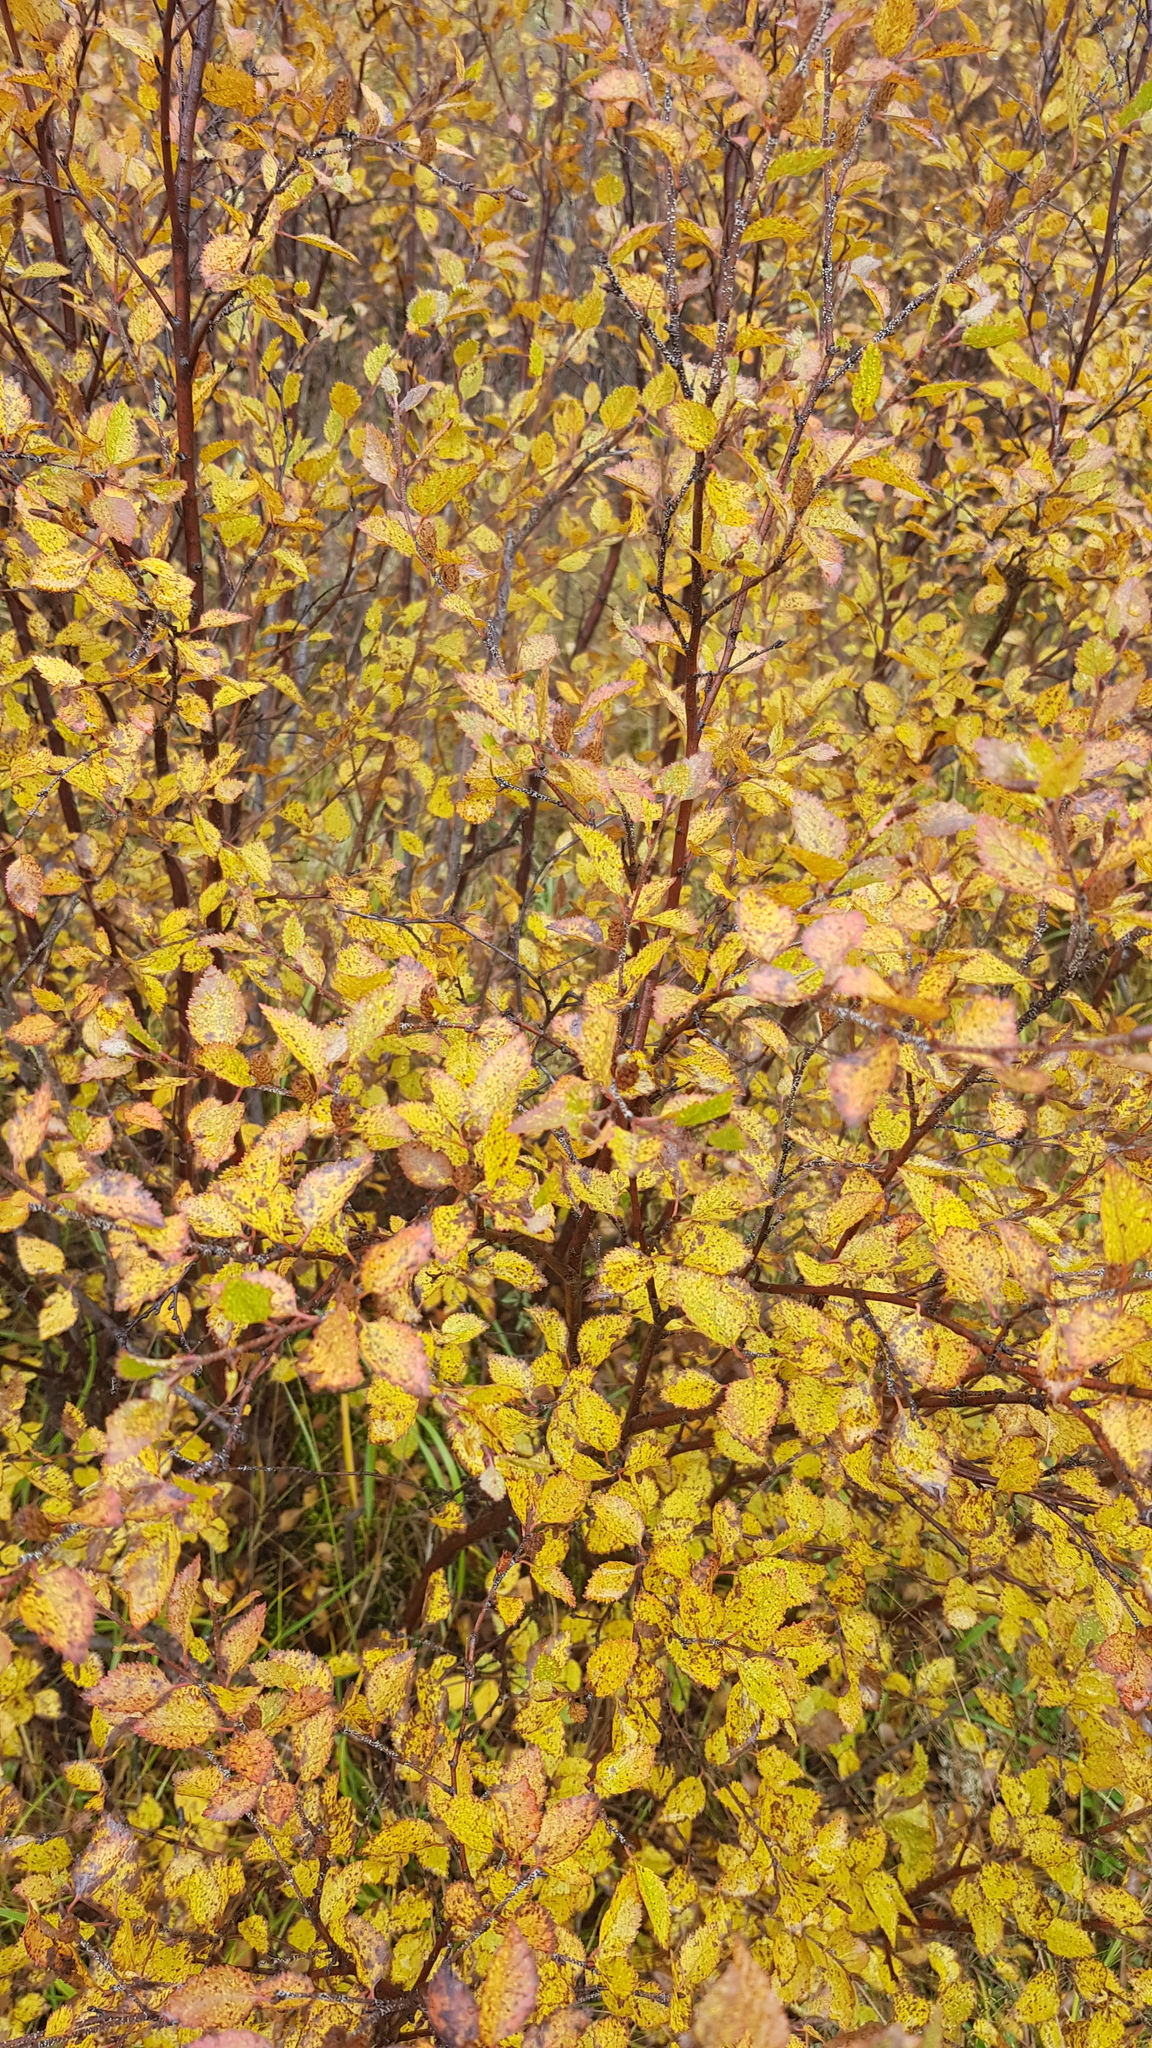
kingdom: Plantae
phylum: Tracheophyta
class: Magnoliopsida
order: Fagales
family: Betulaceae
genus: Betula
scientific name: Betula fruticosa
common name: Japanese bog birch
